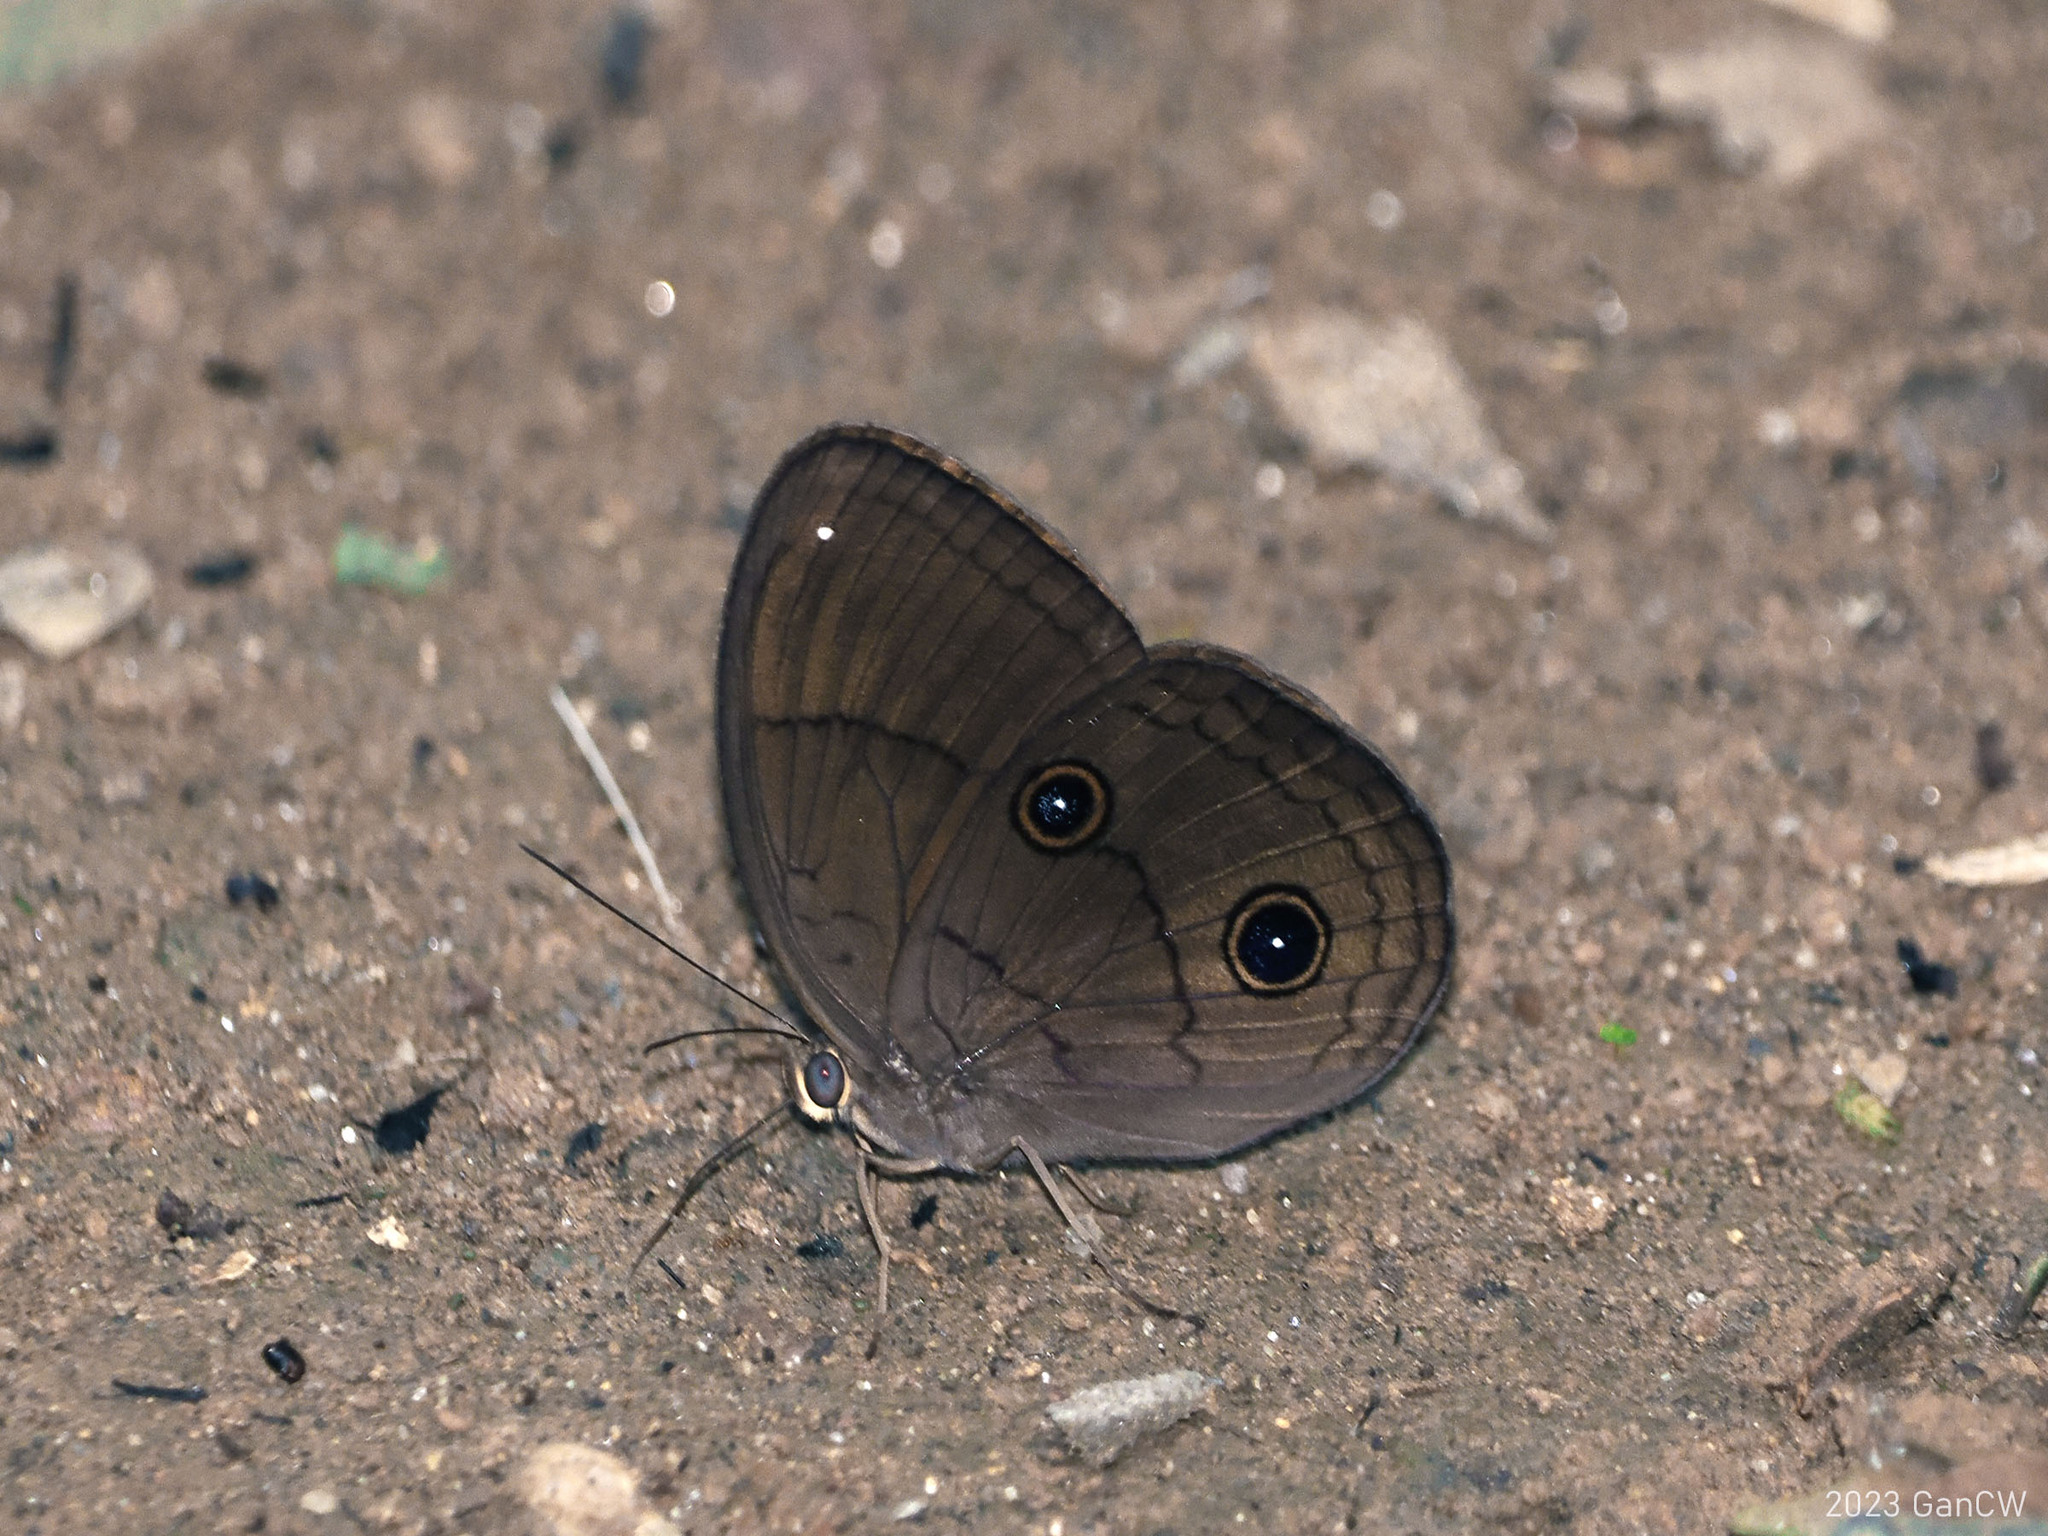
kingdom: Animalia
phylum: Arthropoda
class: Insecta
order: Lepidoptera
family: Nymphalidae
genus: Faunis
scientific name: Faunis phaon
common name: Faun butterfly
